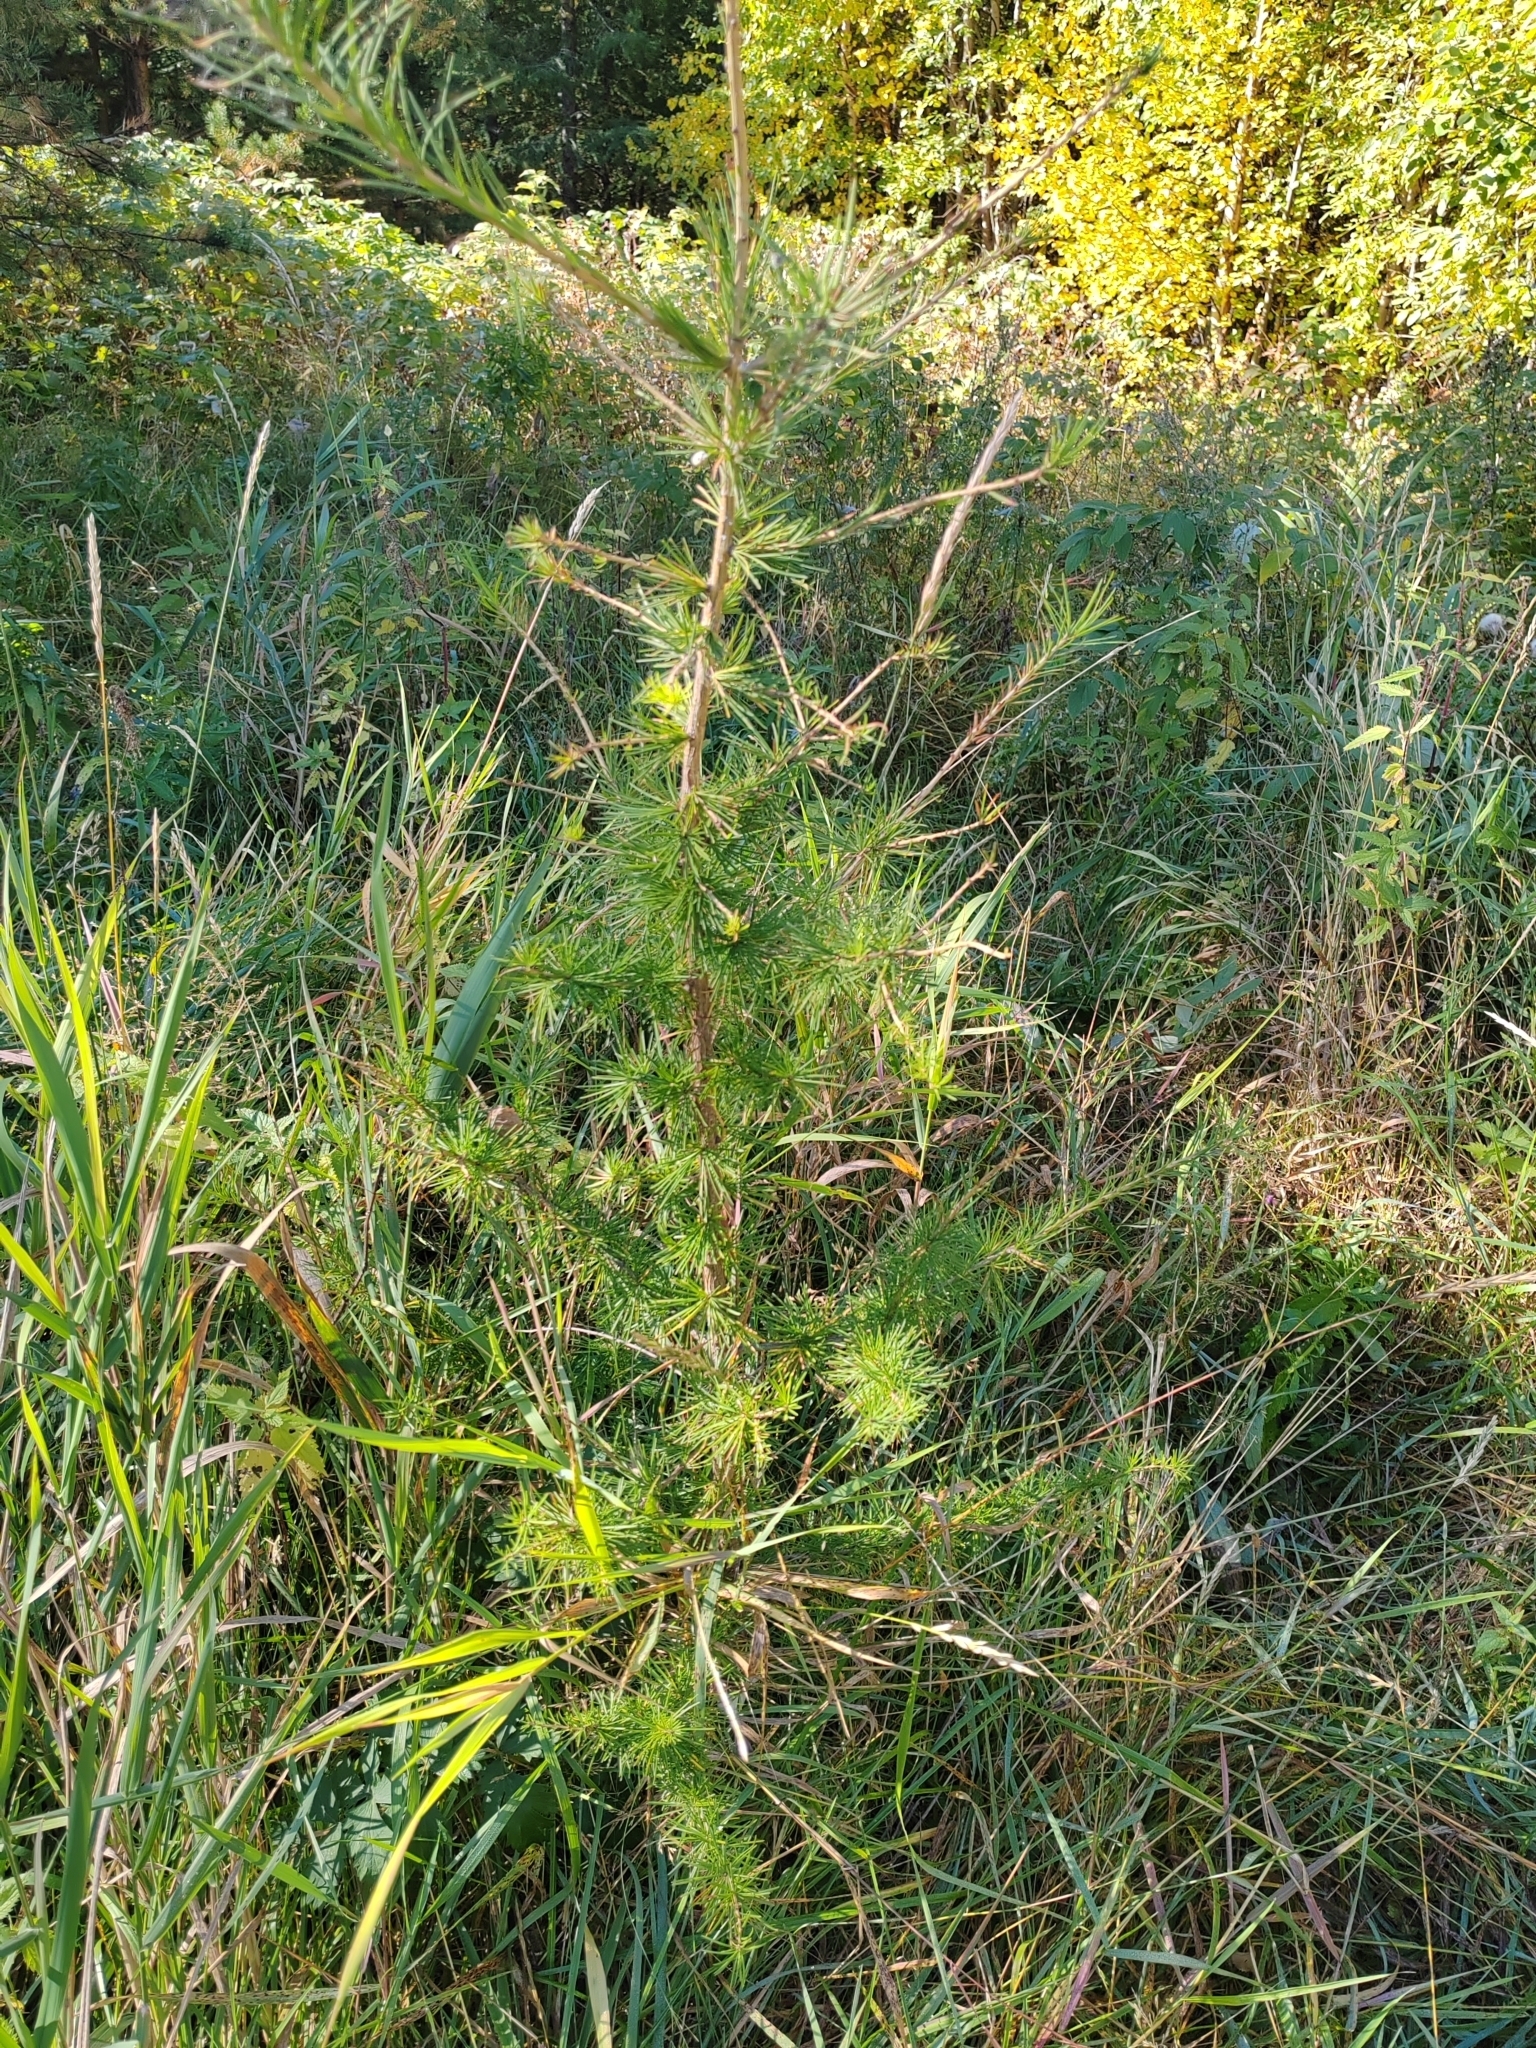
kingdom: Plantae
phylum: Tracheophyta
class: Pinopsida
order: Pinales
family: Pinaceae
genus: Larix
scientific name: Larix sibirica
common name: Siberian larch
